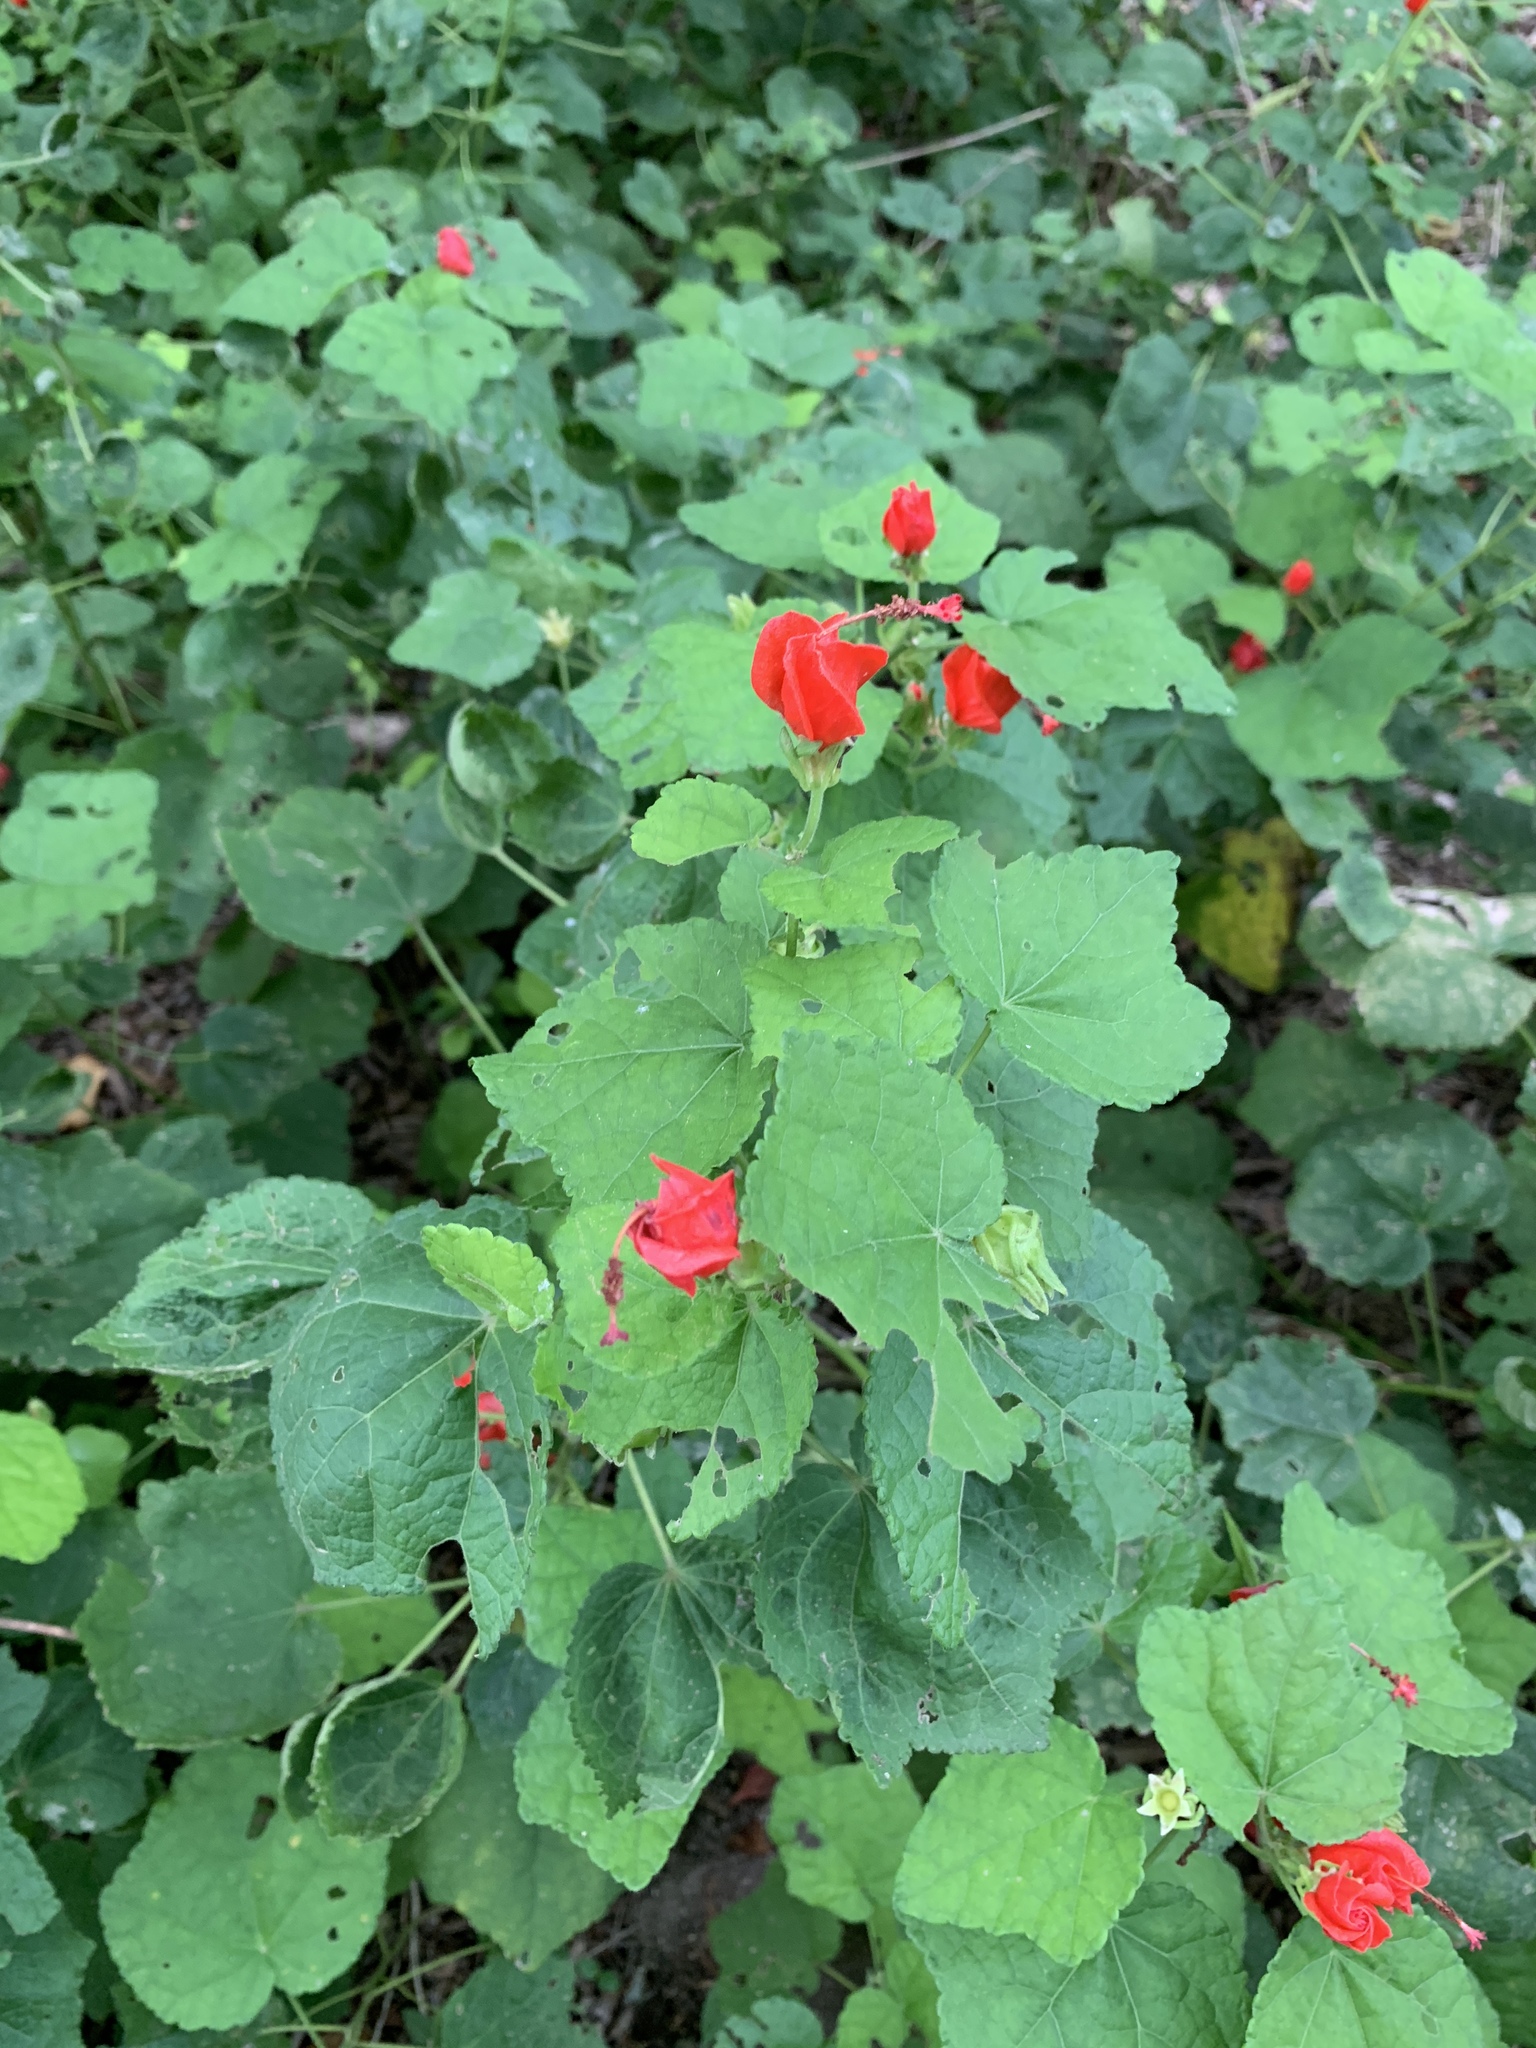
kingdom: Plantae
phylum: Tracheophyta
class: Magnoliopsida
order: Malvales
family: Malvaceae
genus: Malvaviscus
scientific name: Malvaviscus arboreus
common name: Wax mallow
